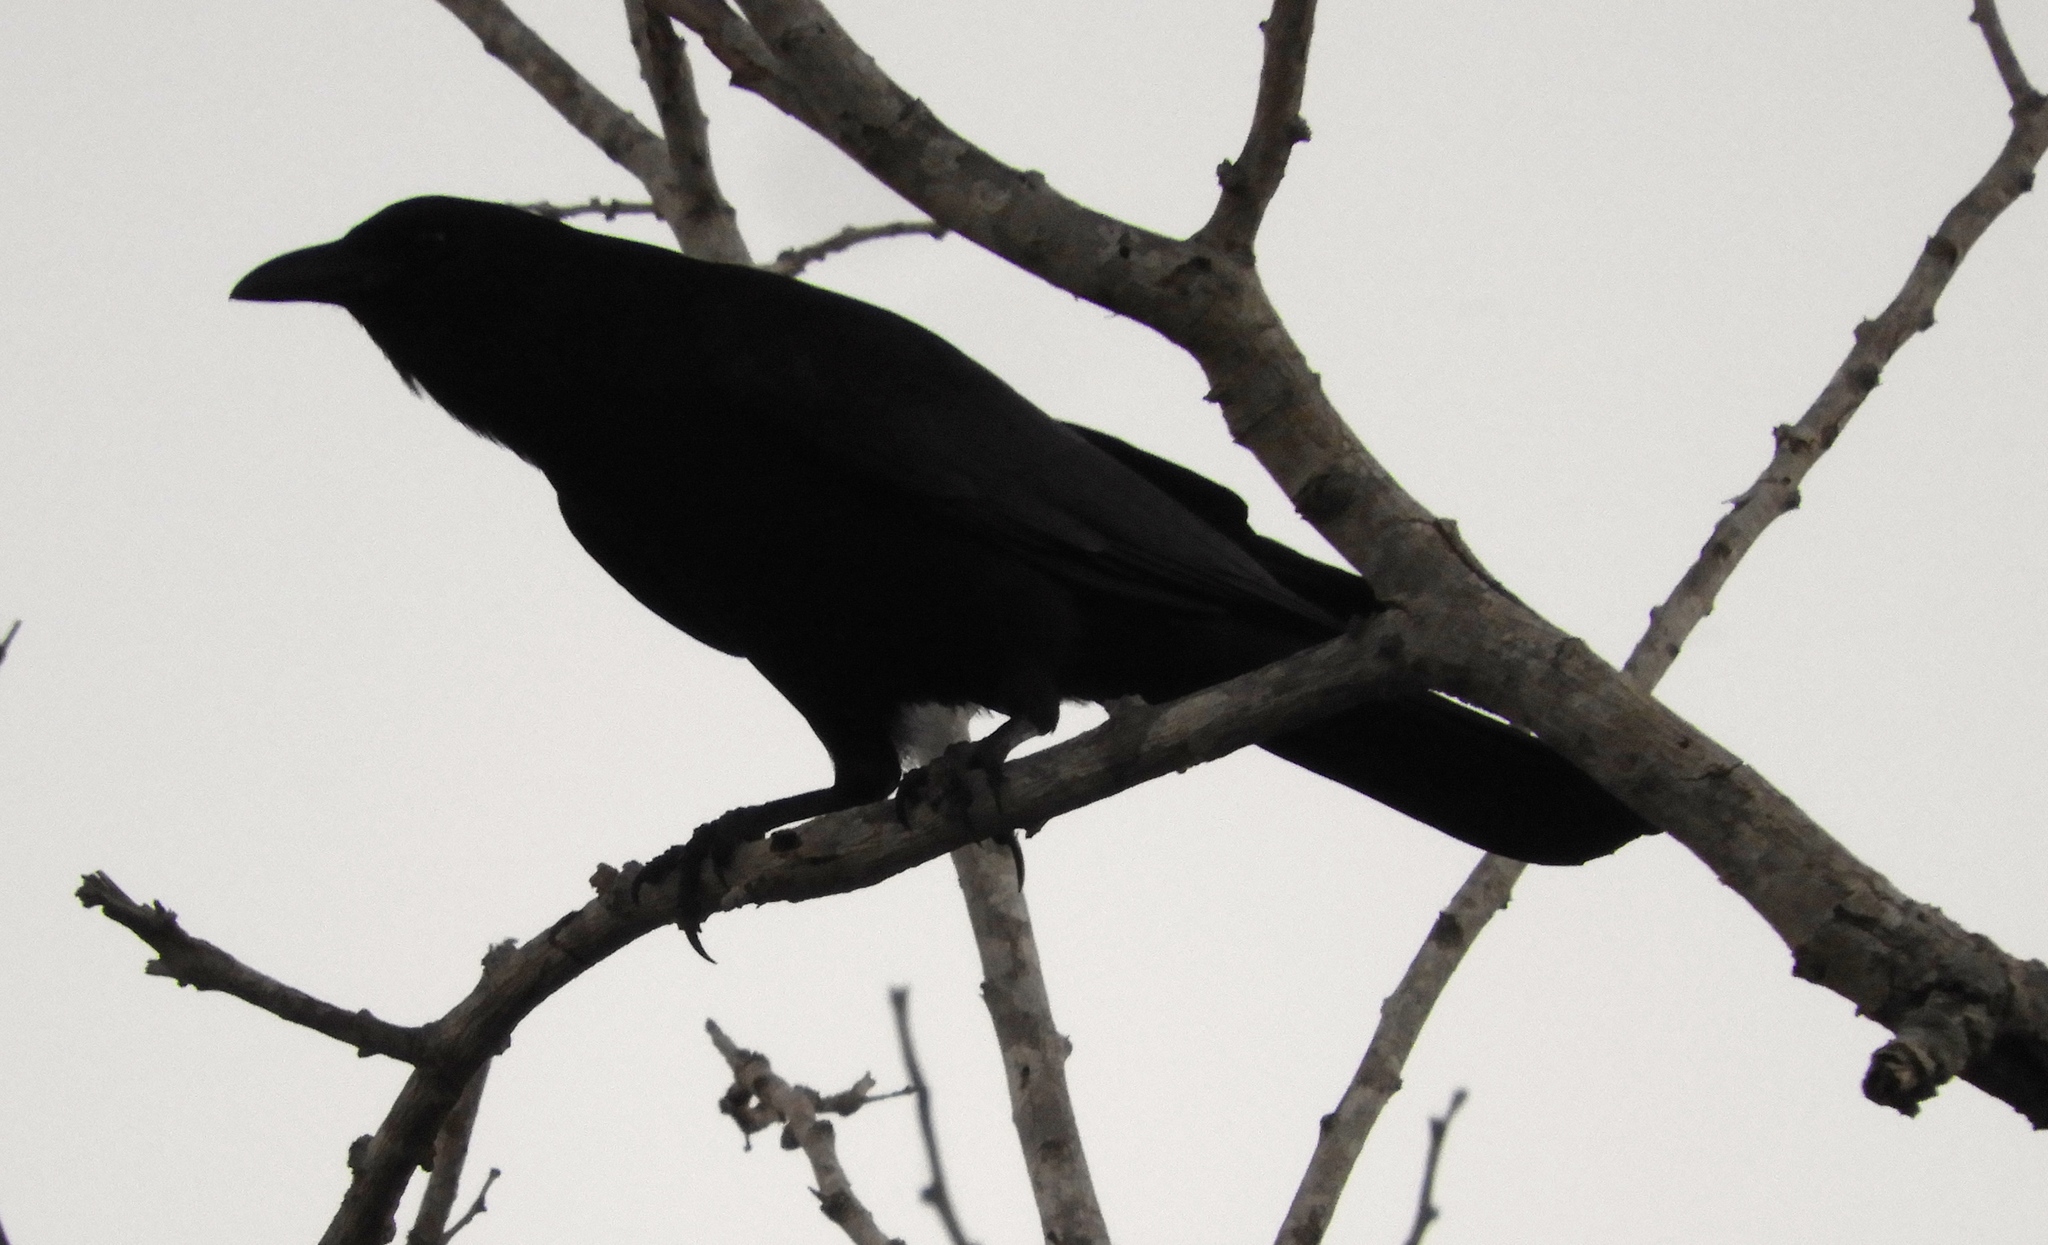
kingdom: Animalia
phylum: Chordata
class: Aves
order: Passeriformes
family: Corvidae
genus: Corvus
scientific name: Corvus sinaloae
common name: Sinaloa crow
